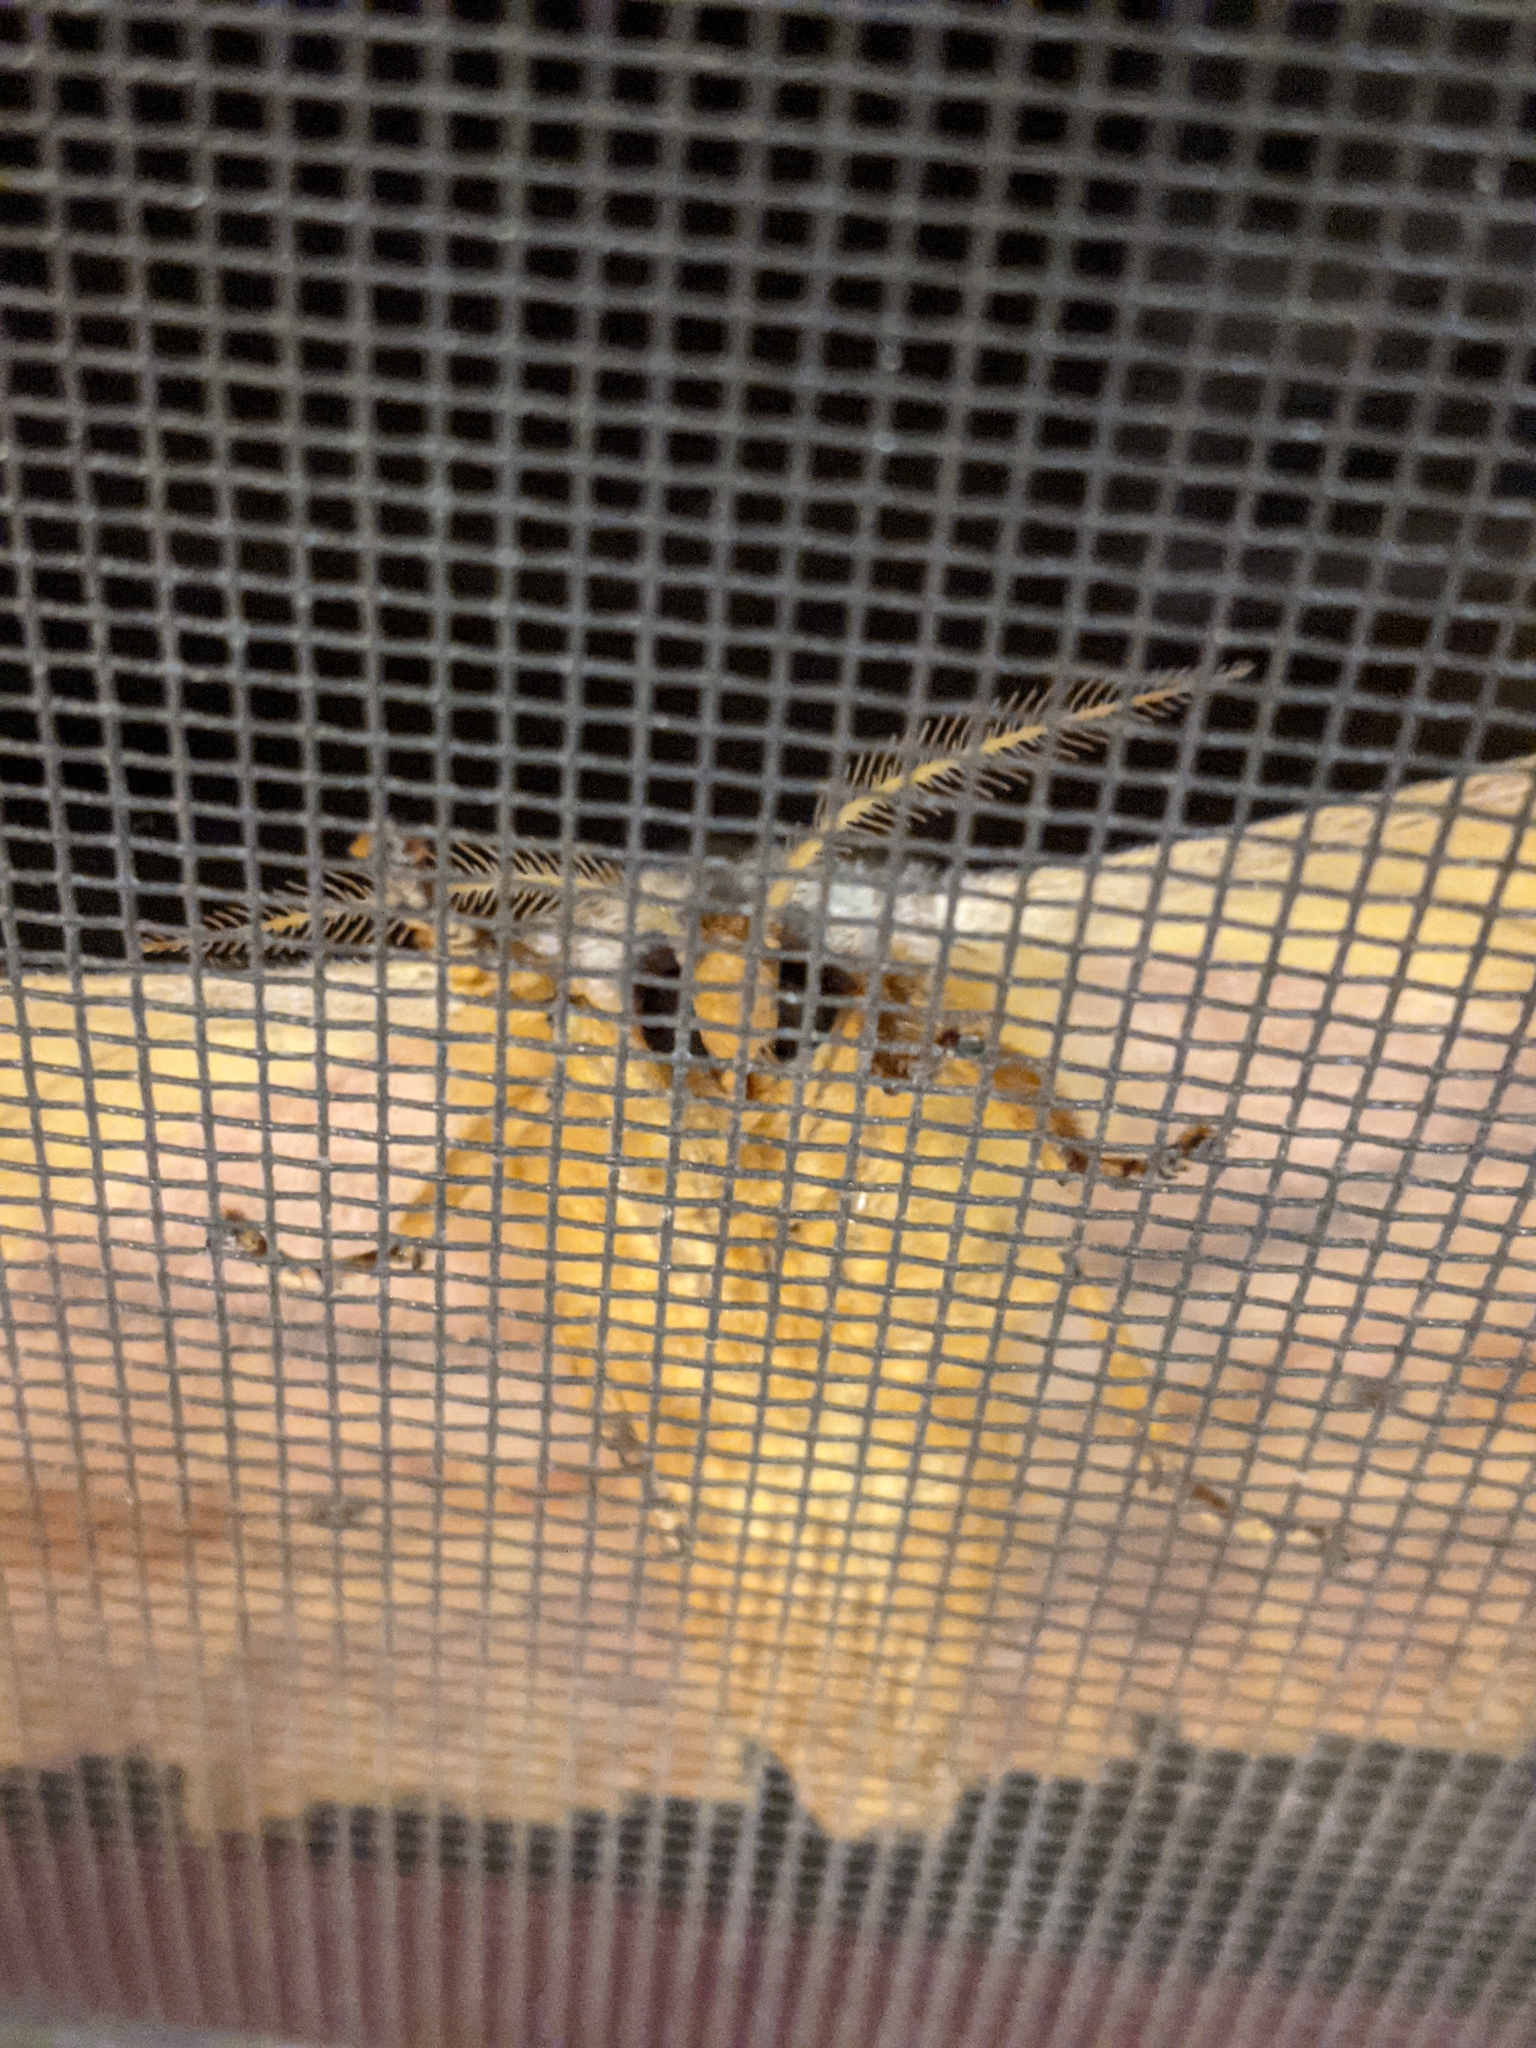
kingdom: Animalia
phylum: Arthropoda
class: Insecta
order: Lepidoptera
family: Saturniidae
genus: Antheraea
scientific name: Antheraea yamamai
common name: Japanese oak silk moth
